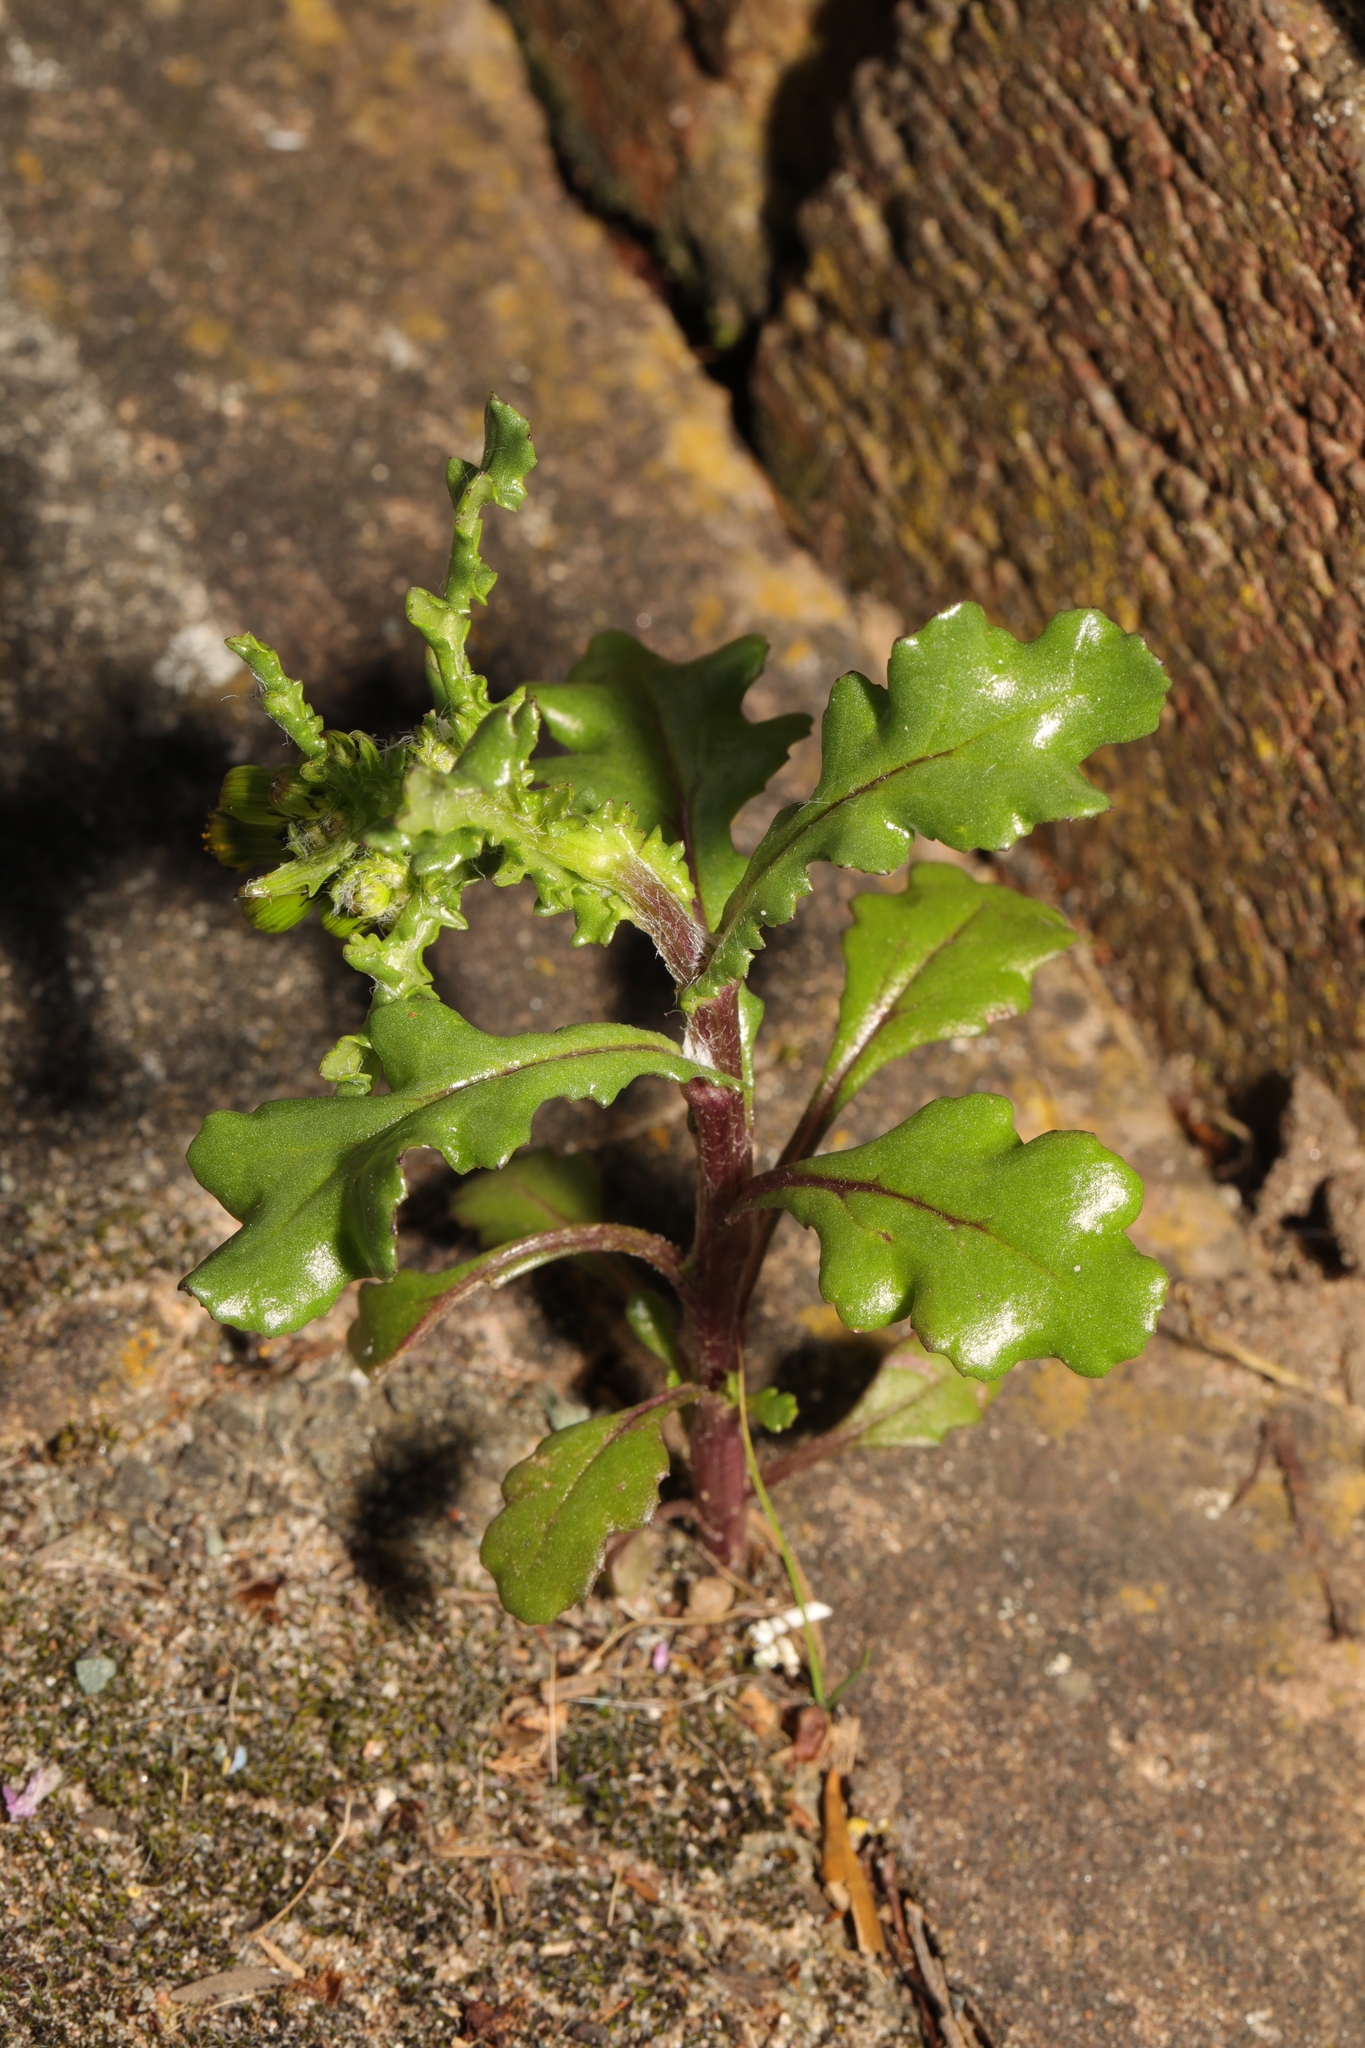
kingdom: Plantae
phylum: Tracheophyta
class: Magnoliopsida
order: Asterales
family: Asteraceae
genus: Senecio
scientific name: Senecio vulgaris
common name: Old-man-in-the-spring
